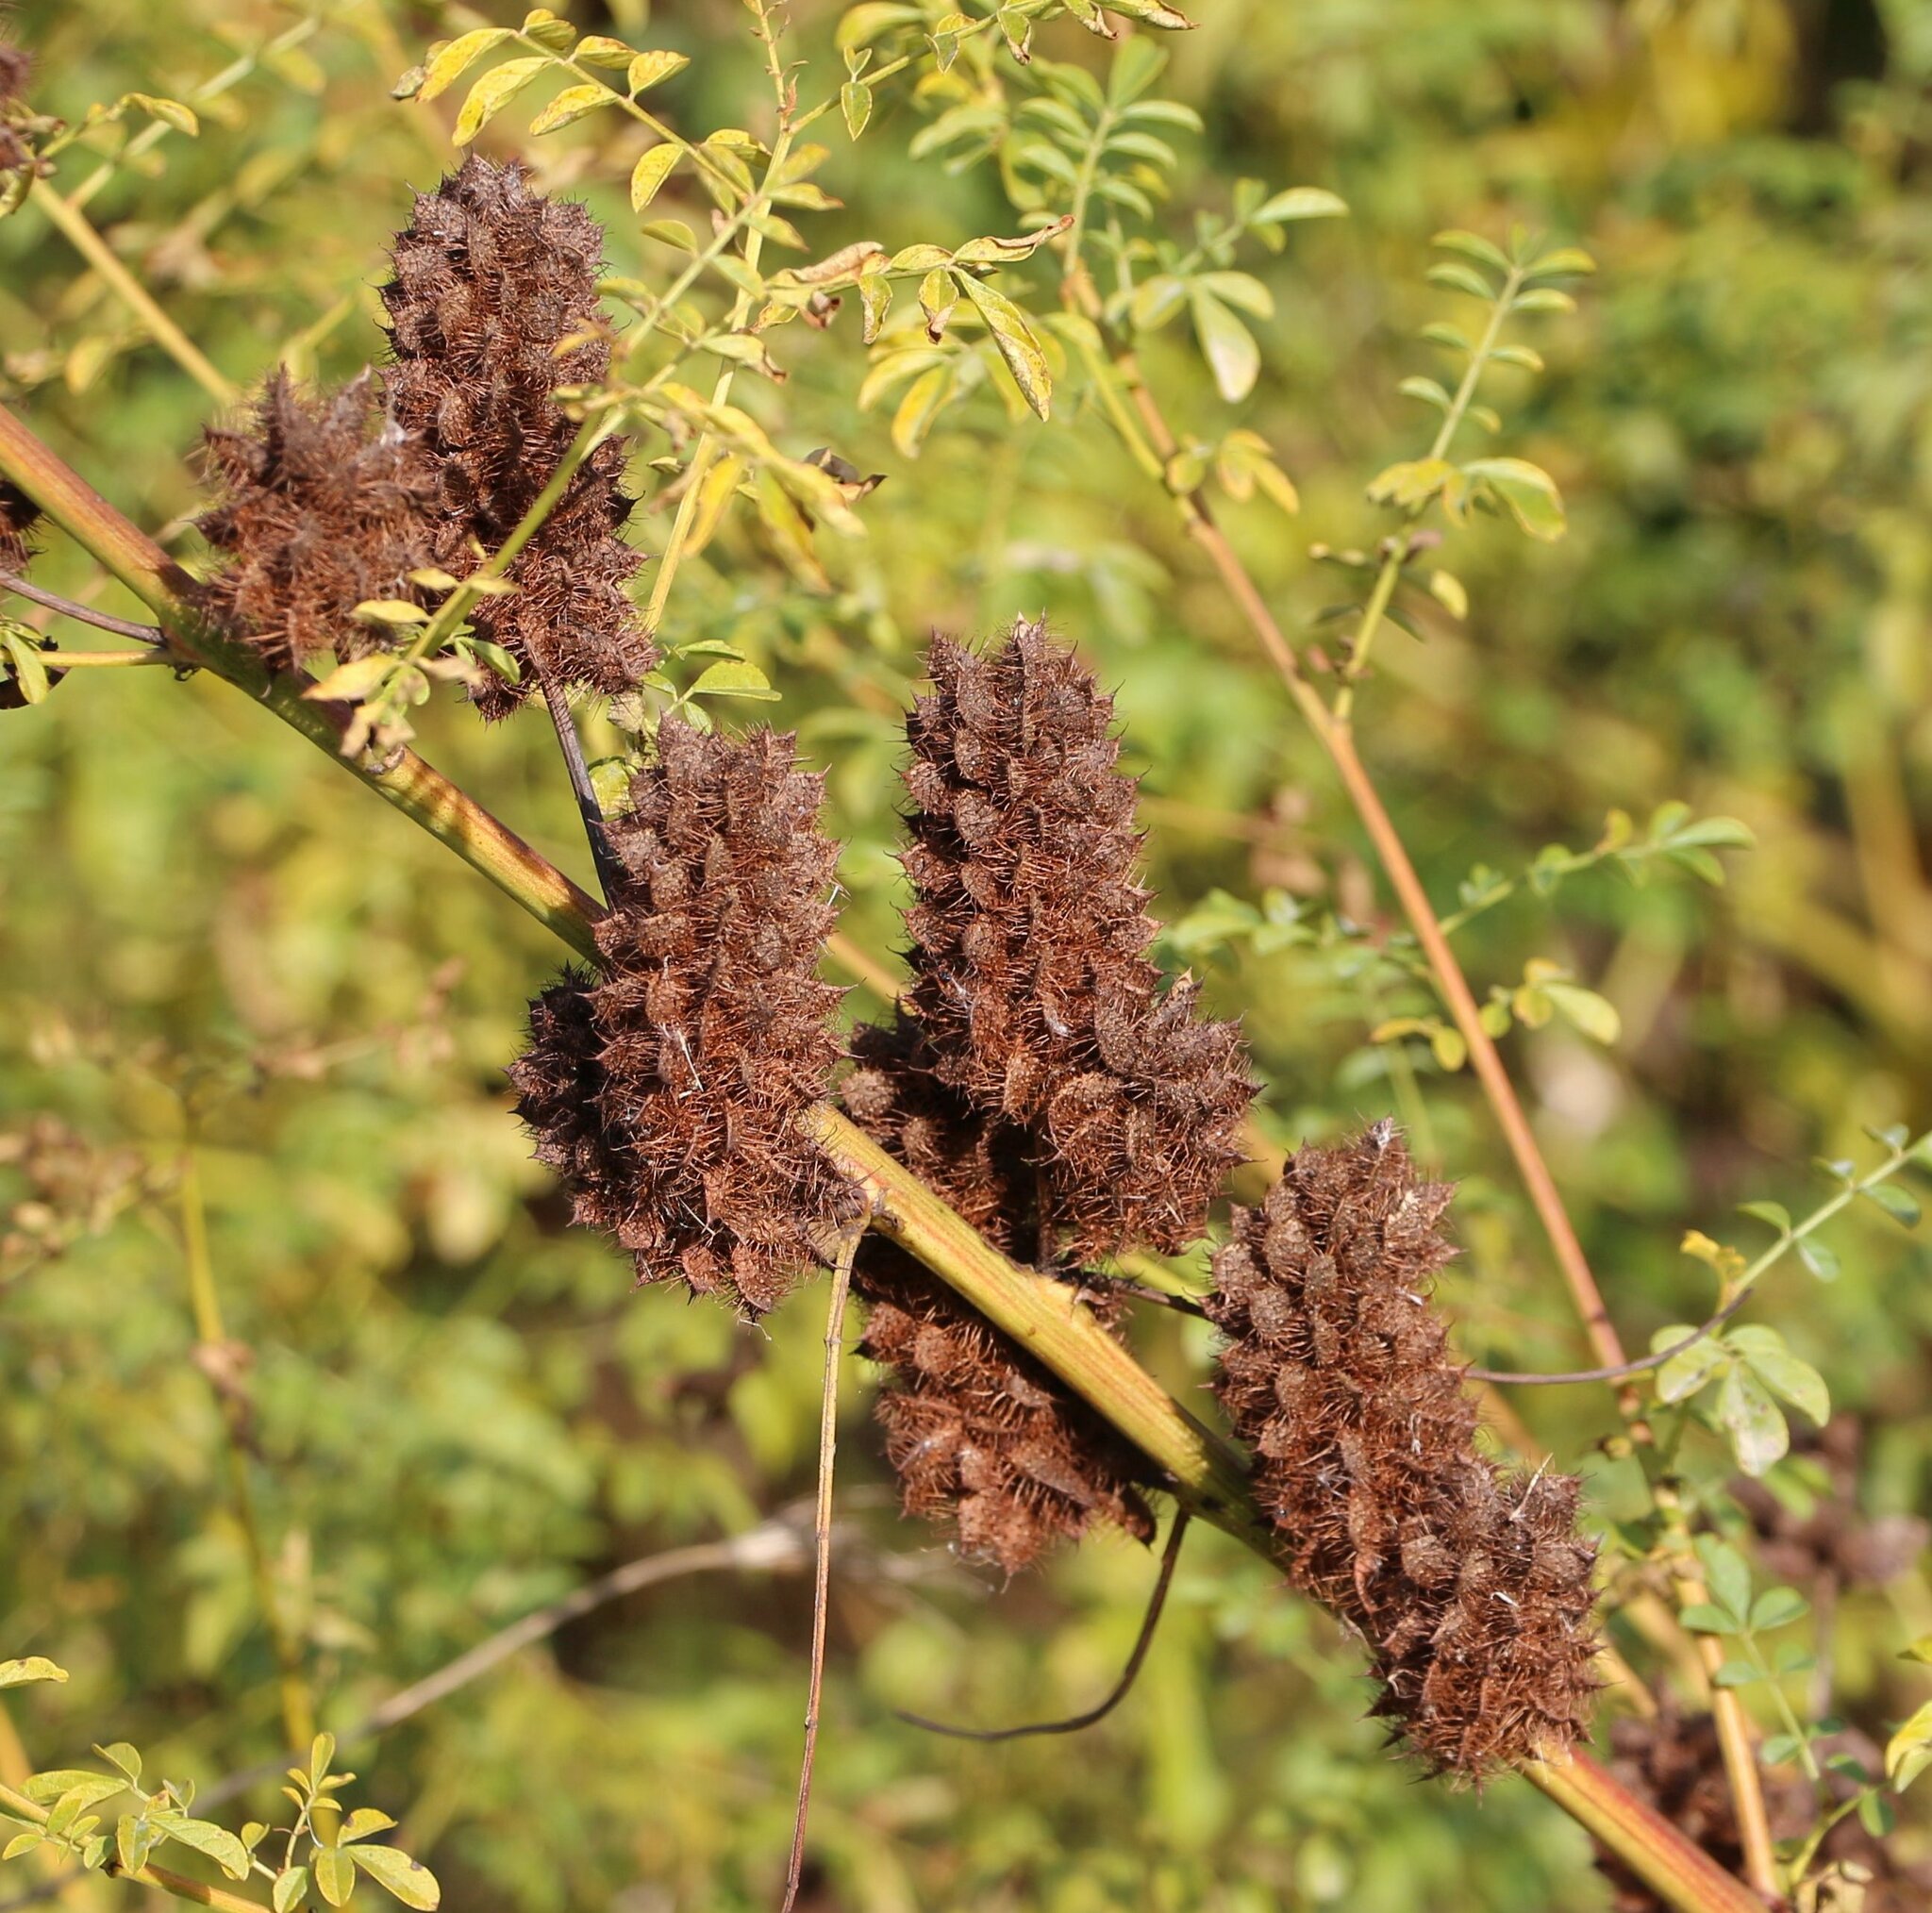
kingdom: Plantae
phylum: Tracheophyta
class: Magnoliopsida
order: Fabales
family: Fabaceae
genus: Glycyrrhiza
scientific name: Glycyrrhiza echinata
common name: German liquorice
